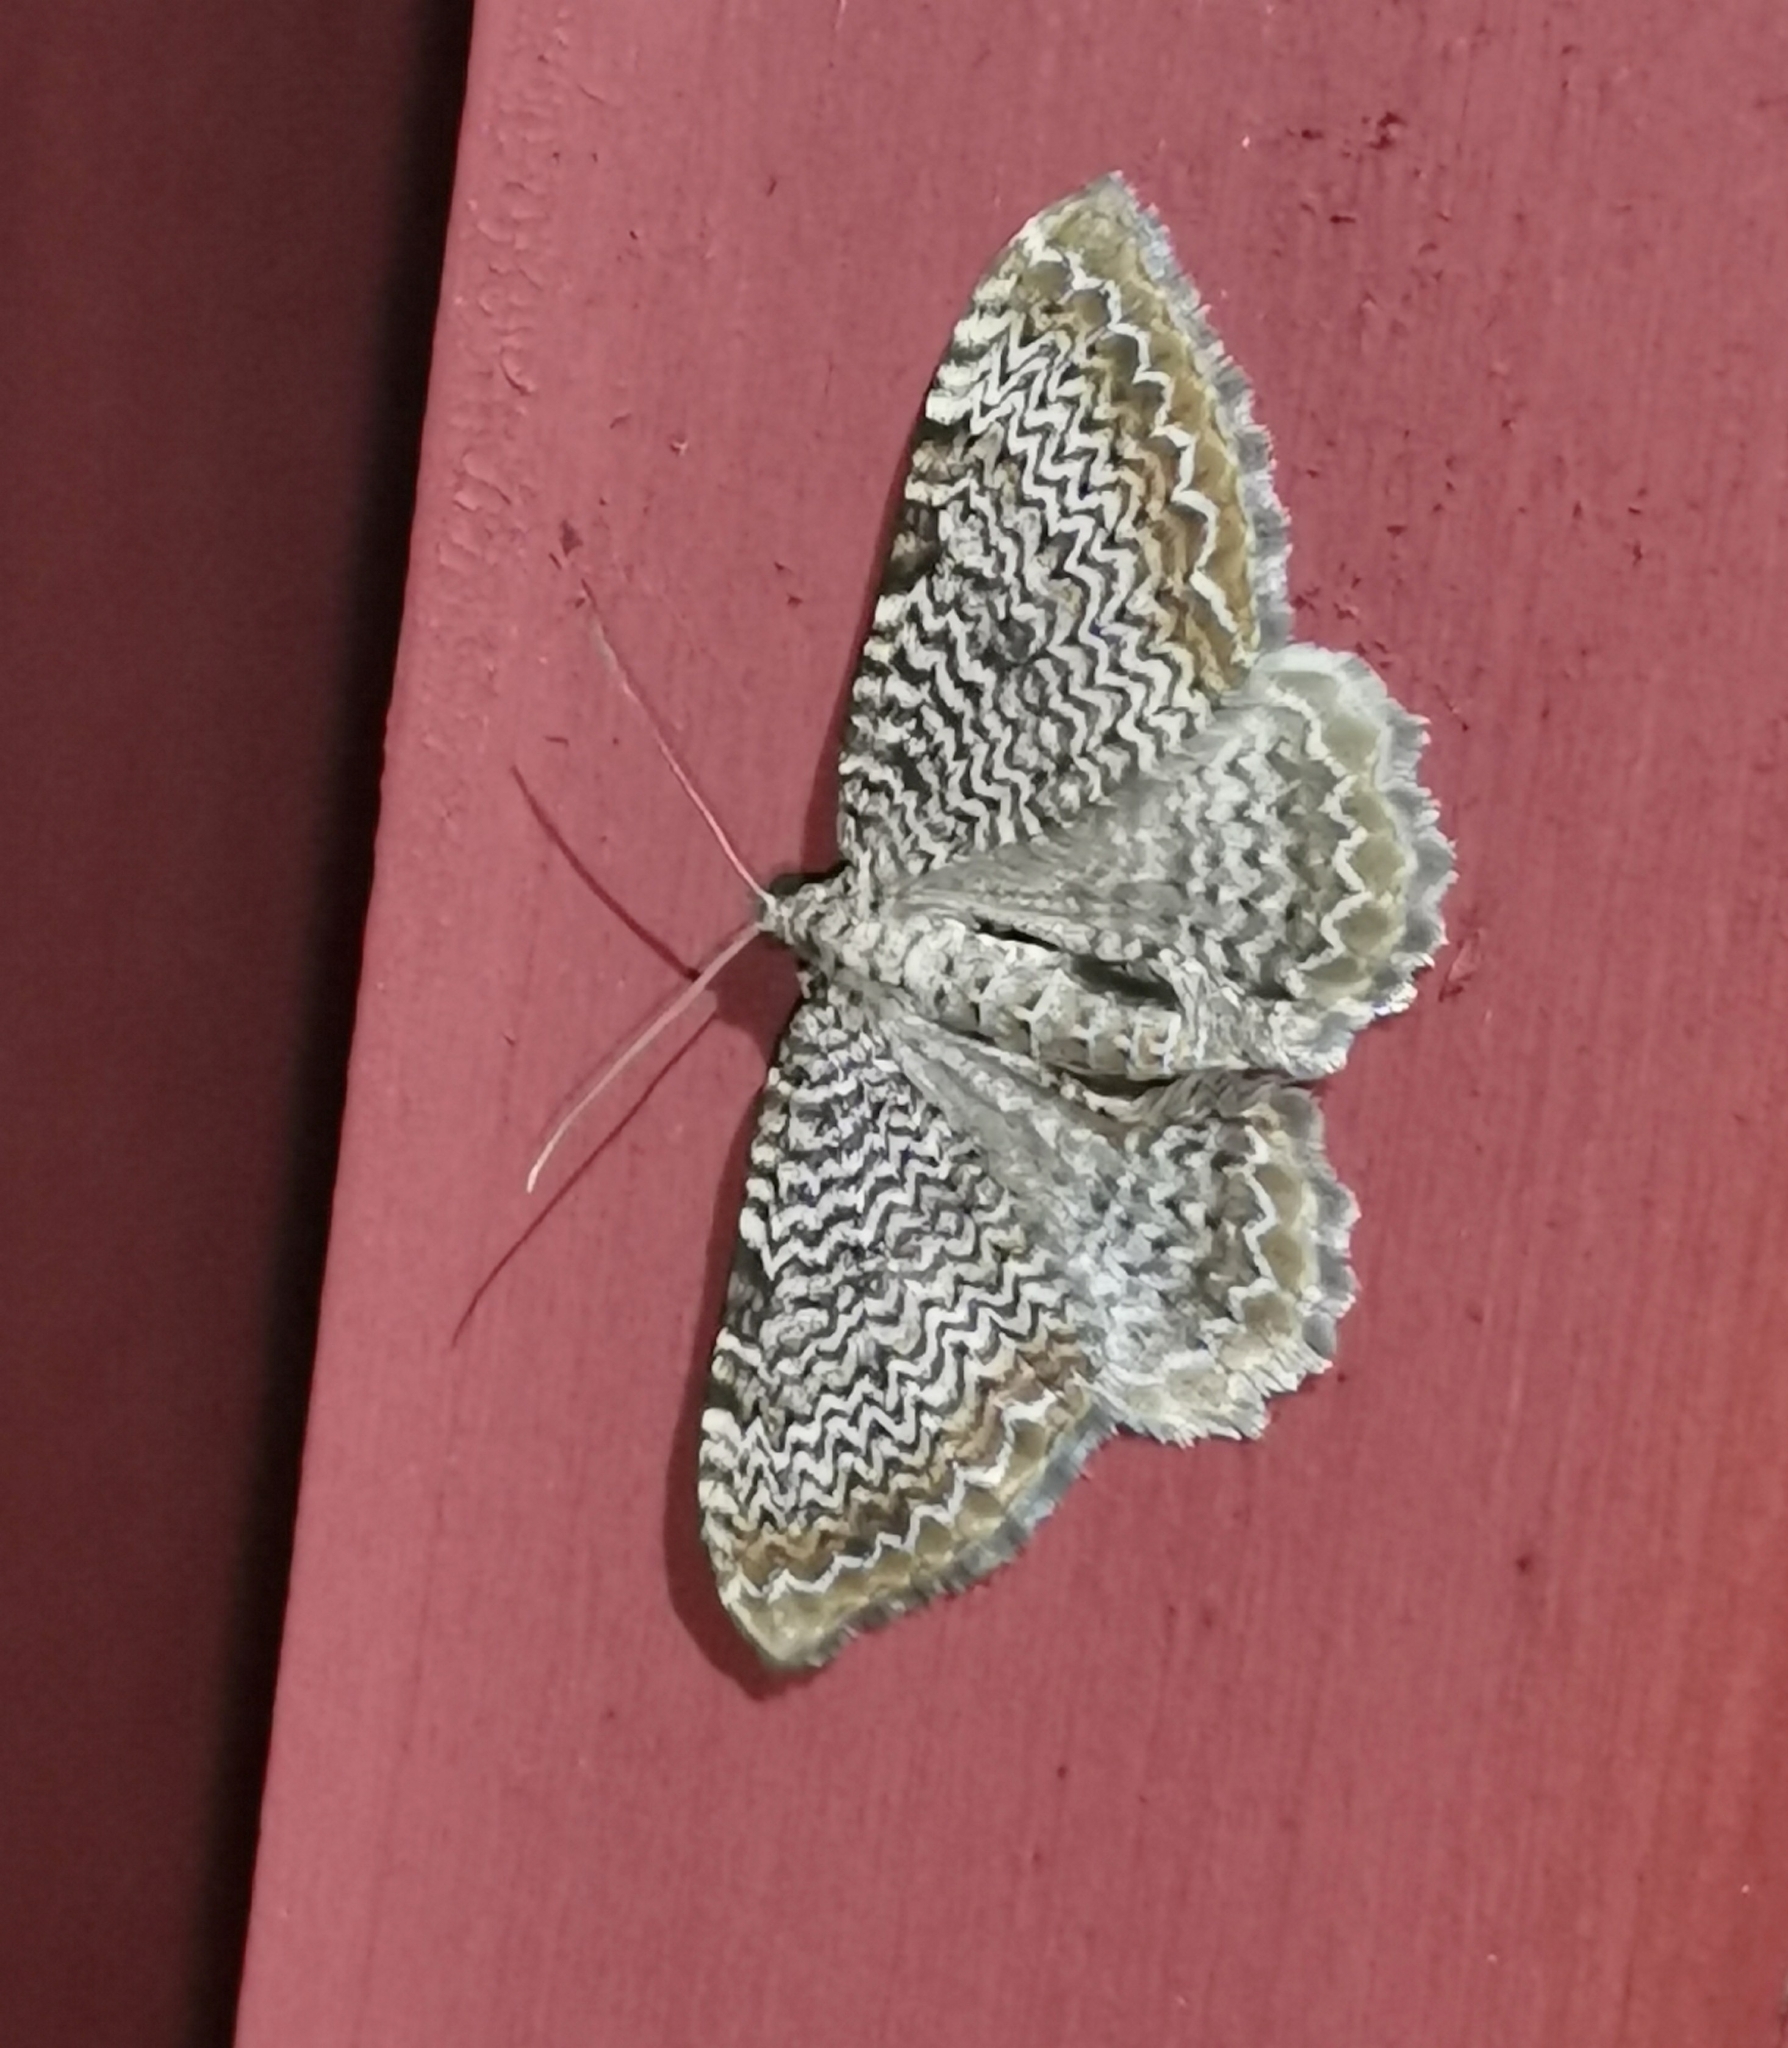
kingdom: Animalia
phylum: Arthropoda
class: Insecta
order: Lepidoptera
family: Geometridae
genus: Rheumaptera
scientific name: Rheumaptera undulata
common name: Scallop shell
